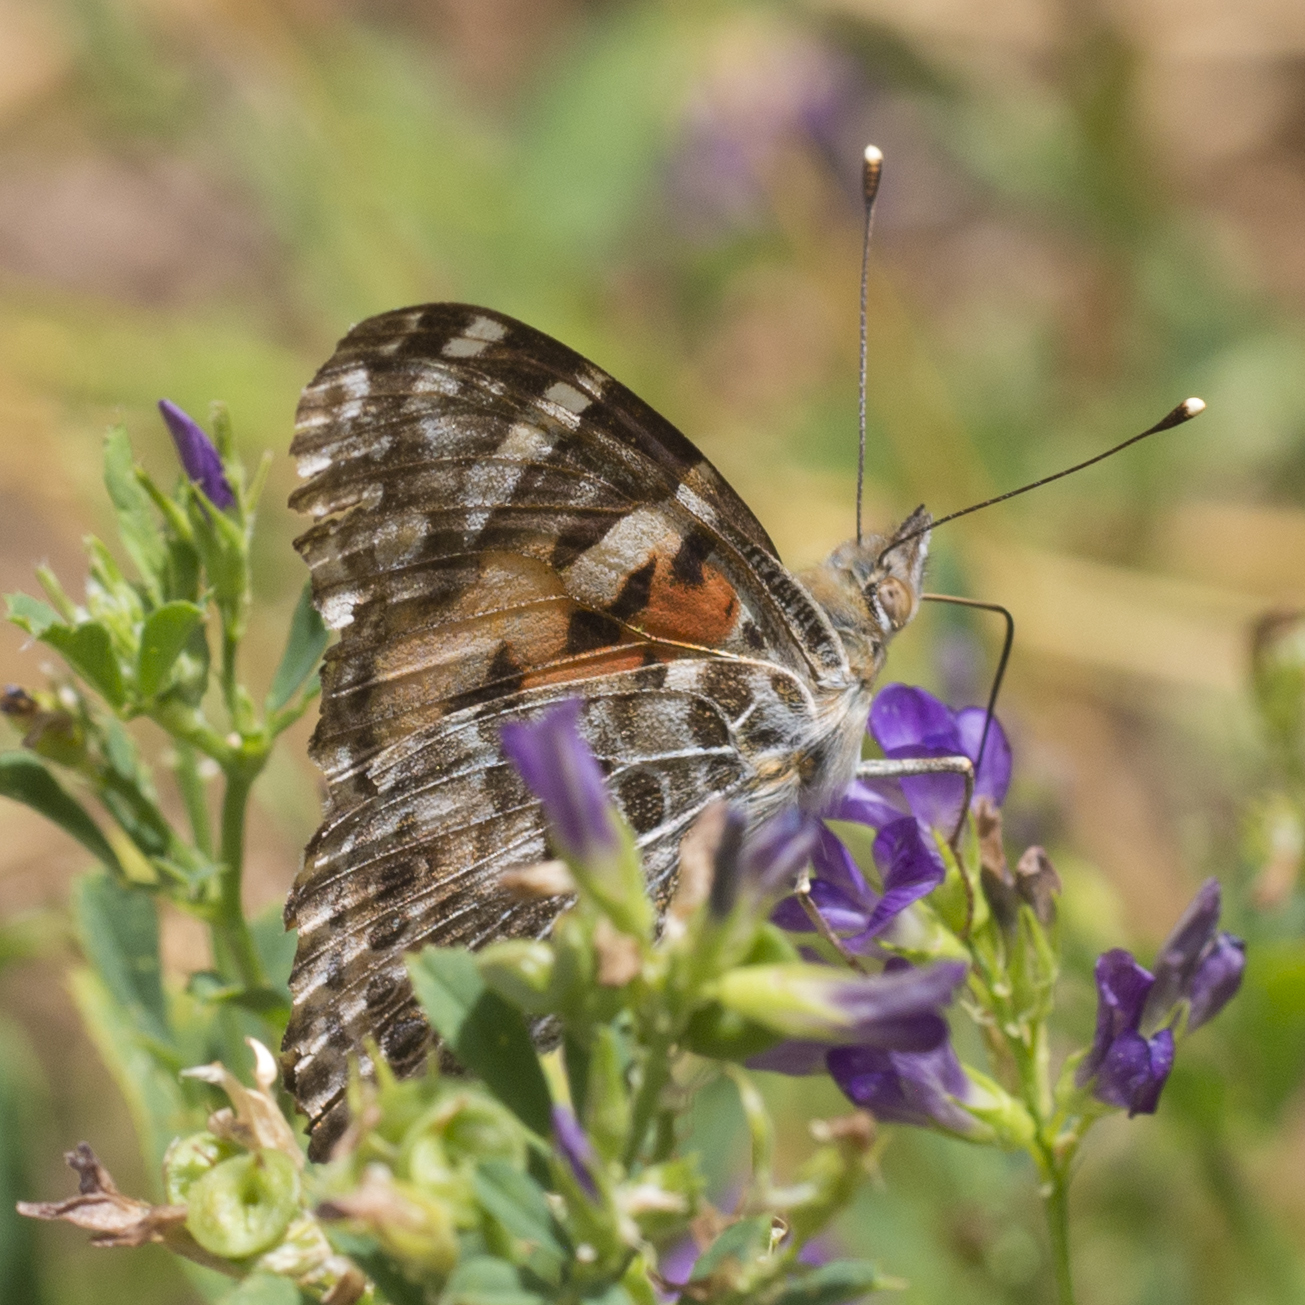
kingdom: Animalia
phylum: Arthropoda
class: Insecta
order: Lepidoptera
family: Nymphalidae
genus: Vanessa
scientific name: Vanessa cardui
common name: Painted lady
